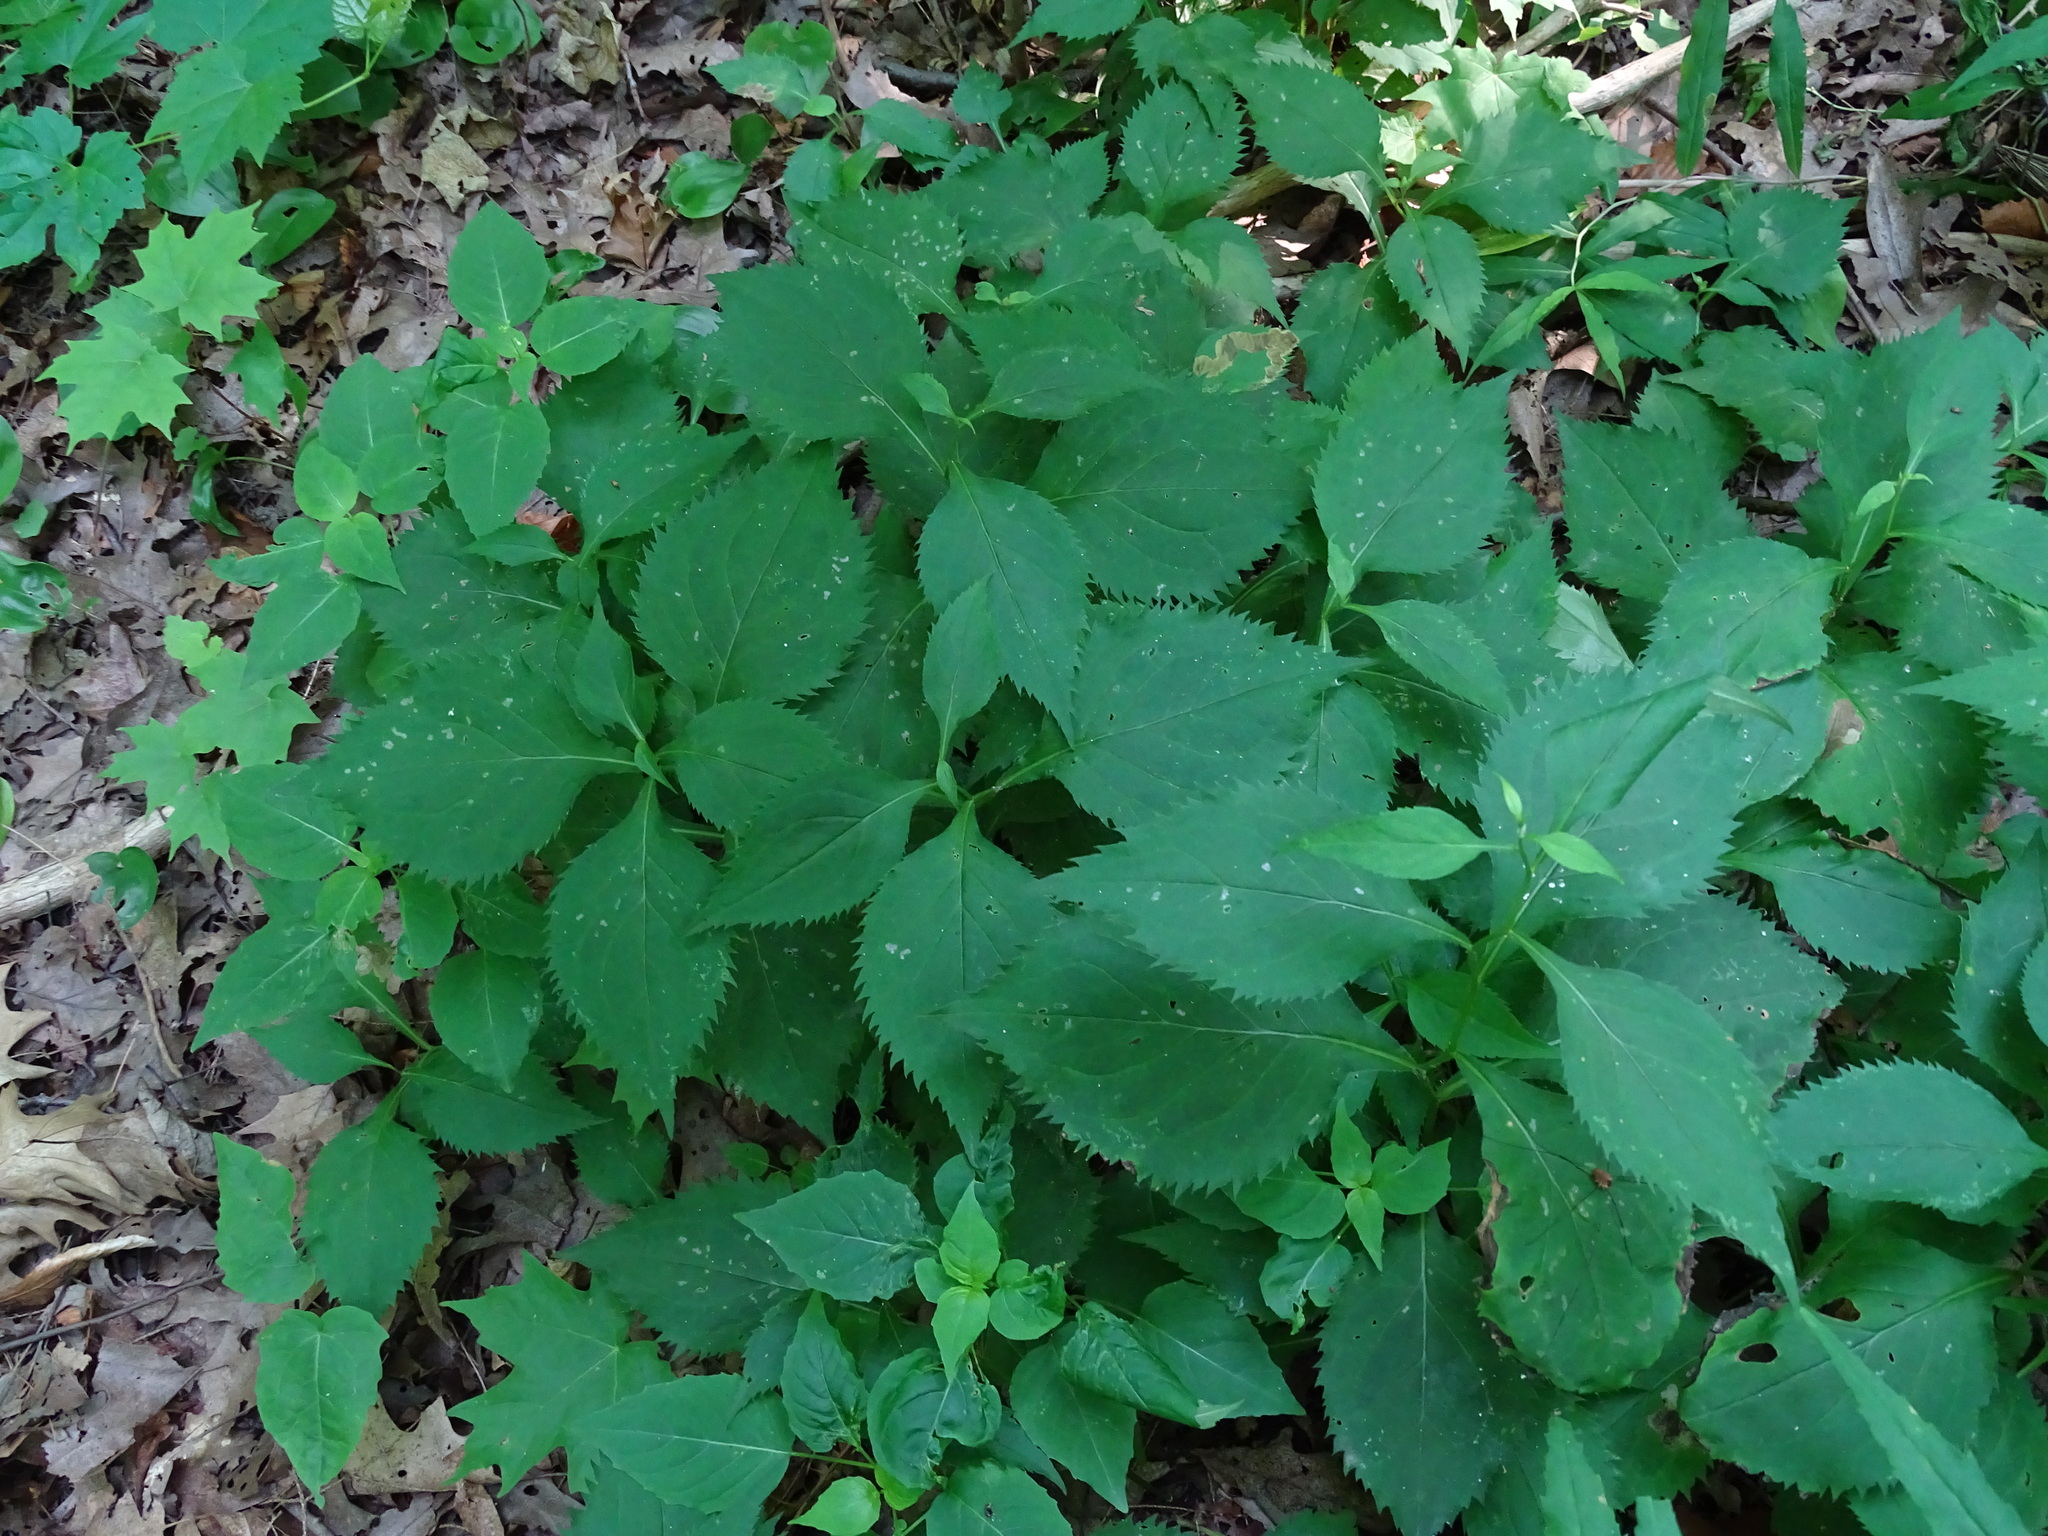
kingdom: Plantae
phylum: Tracheophyta
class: Magnoliopsida
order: Asterales
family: Asteraceae
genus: Solidago
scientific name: Solidago flexicaulis
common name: Zig-zag goldenrod
